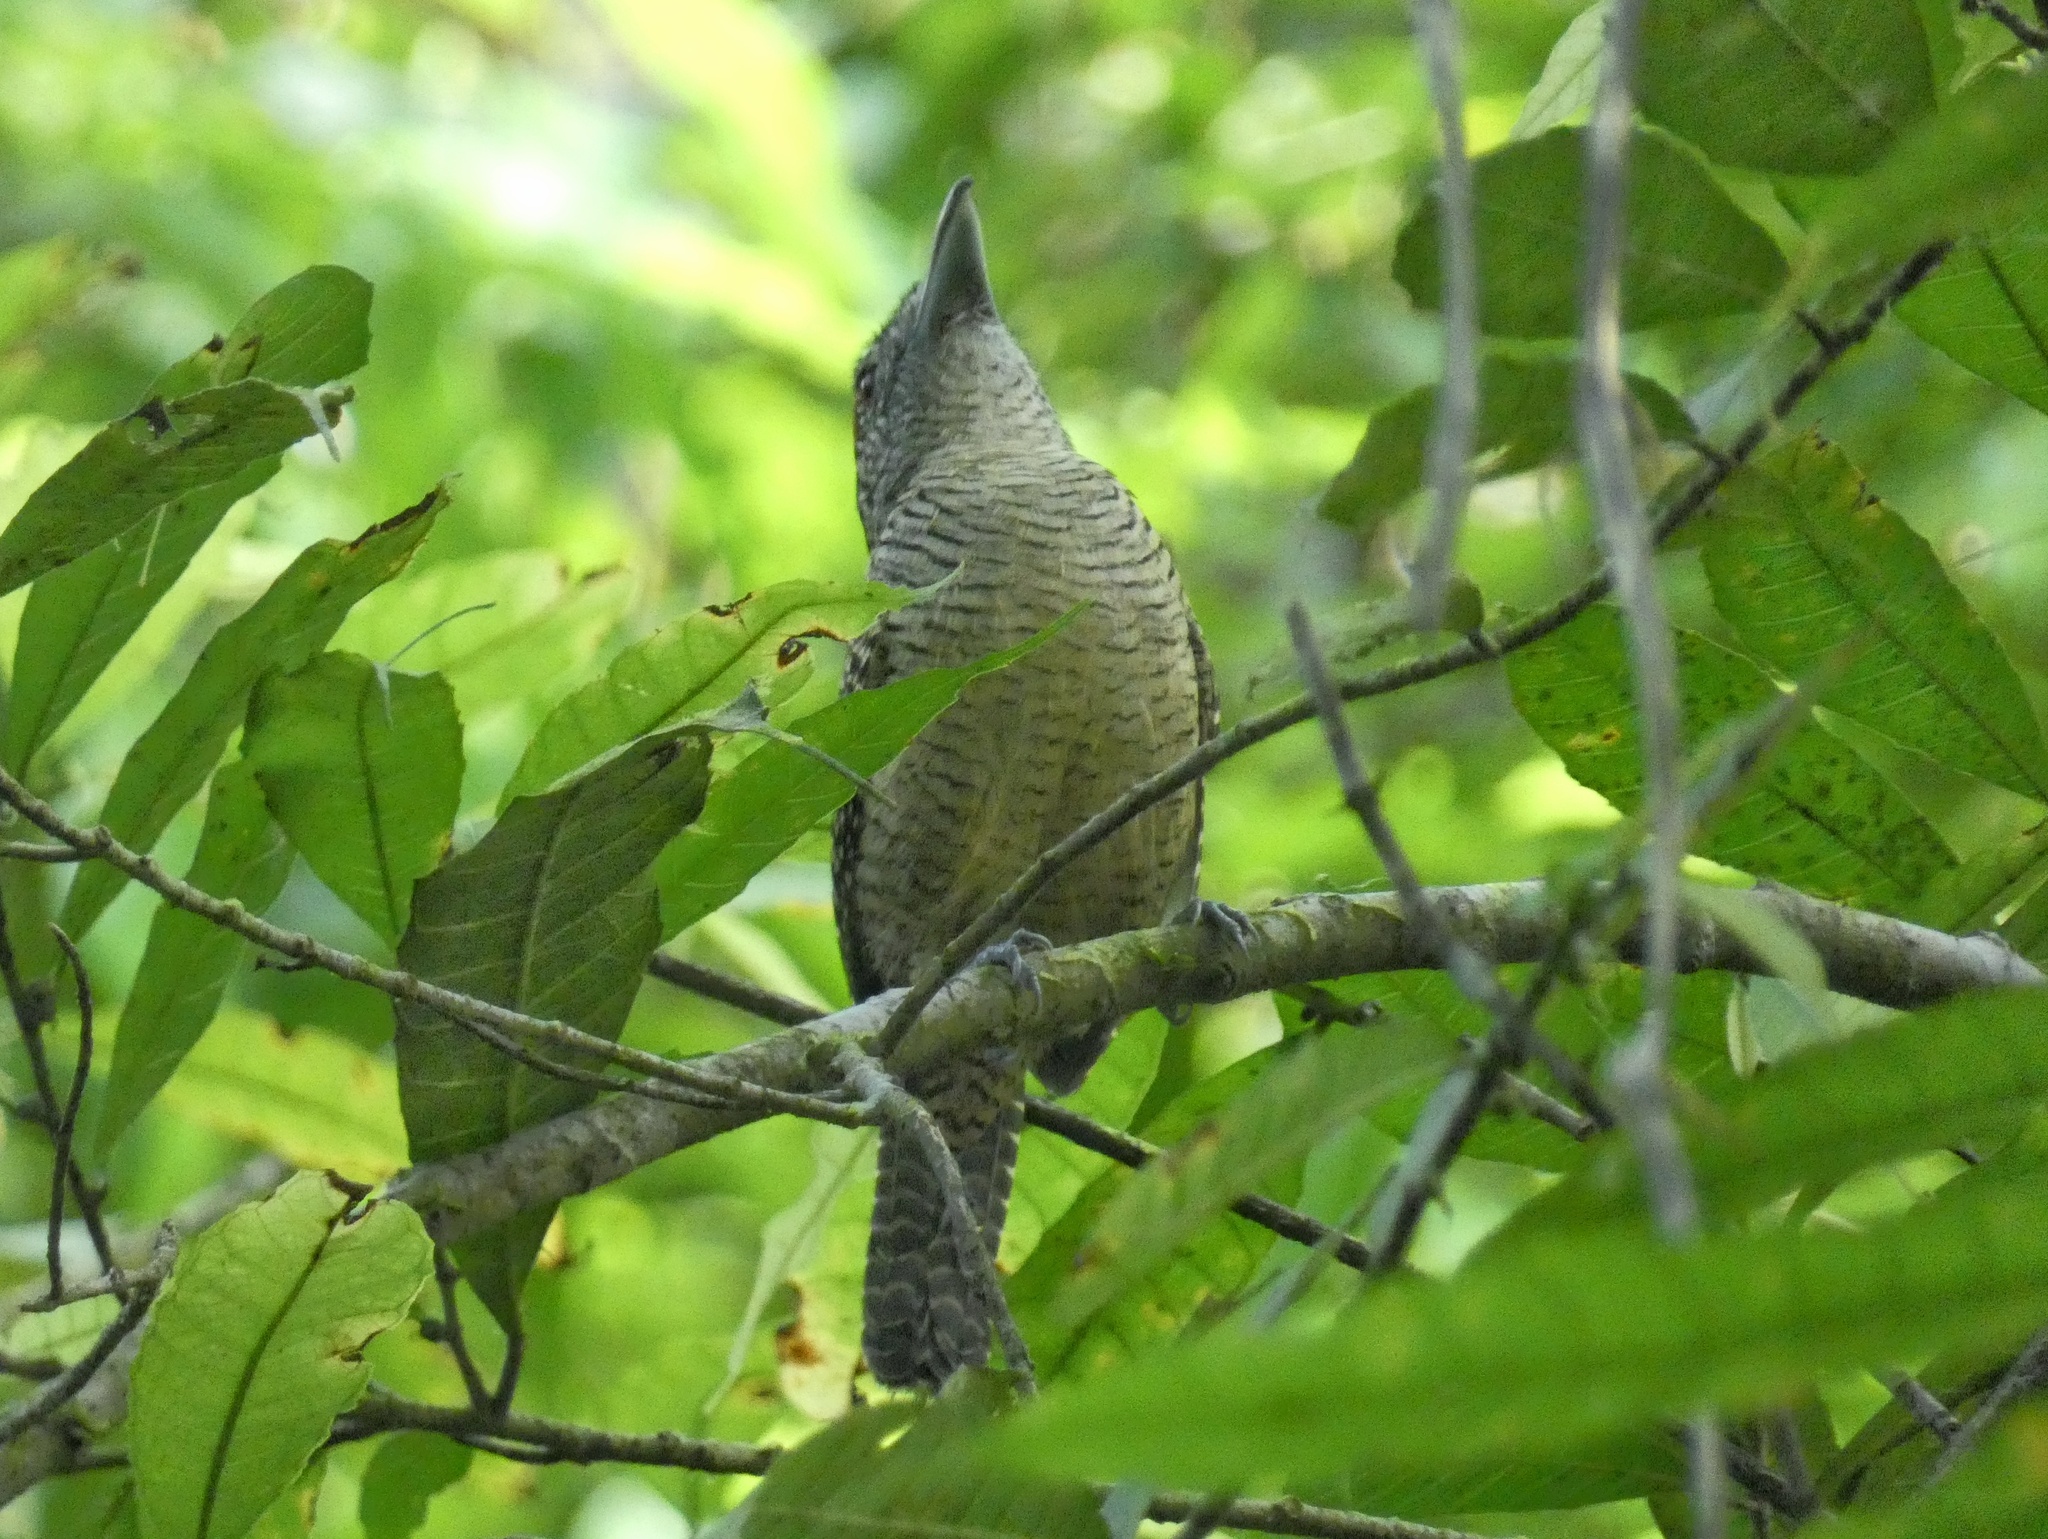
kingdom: Animalia
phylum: Chordata
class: Aves
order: Passeriformes
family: Thamnophilidae
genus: Cymbilaimus
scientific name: Cymbilaimus lineatus
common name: Fasciated antshrike
